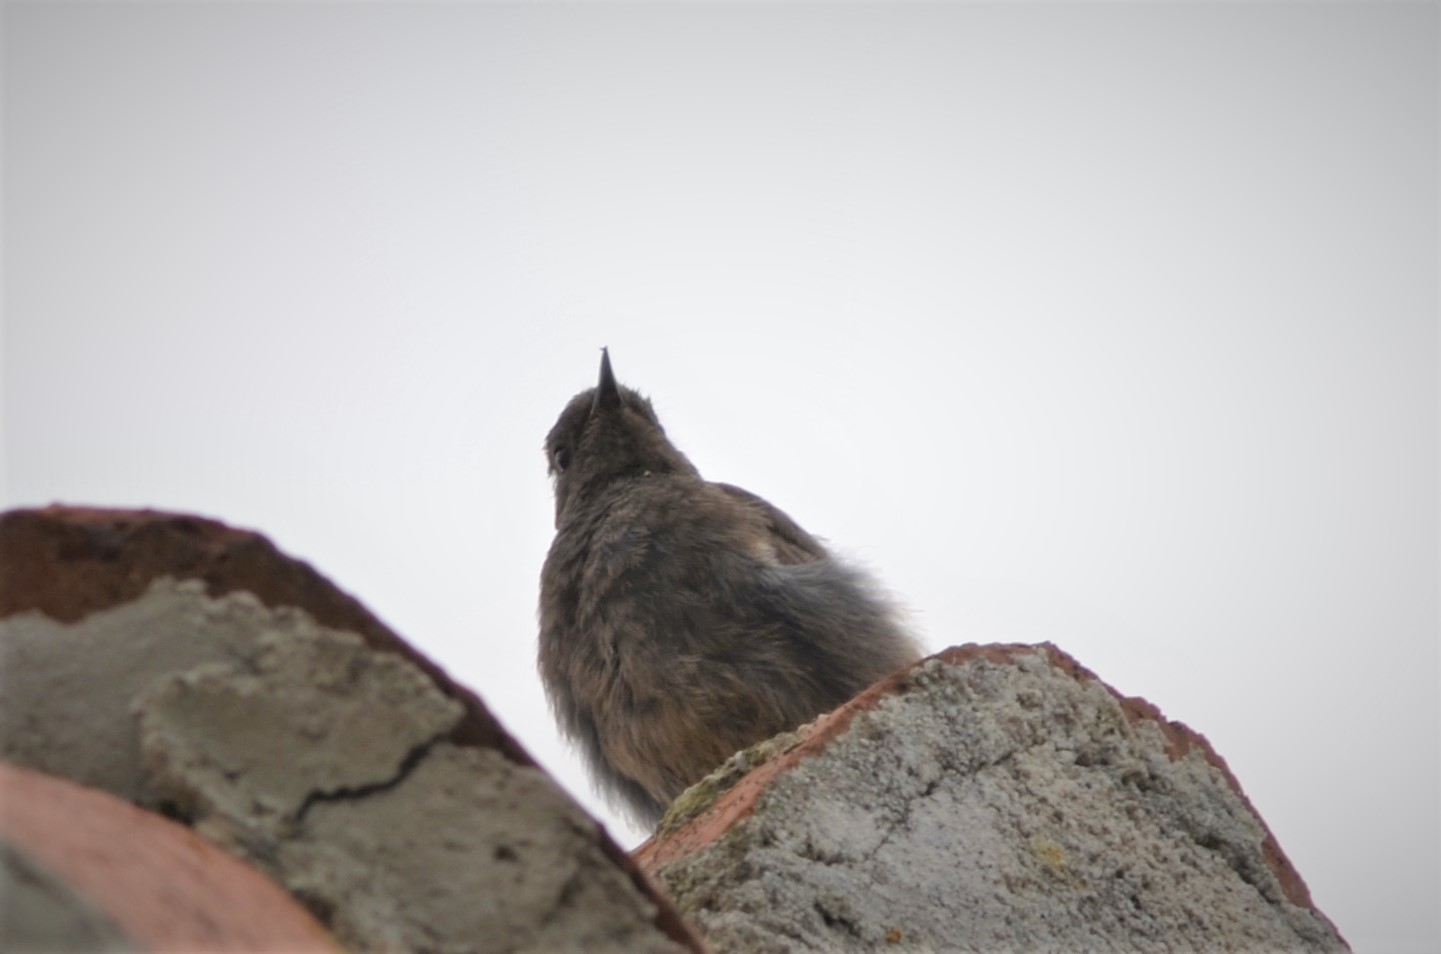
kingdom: Animalia
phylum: Chordata
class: Aves
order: Passeriformes
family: Muscicapidae
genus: Phoenicurus
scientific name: Phoenicurus ochruros
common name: Black redstart
